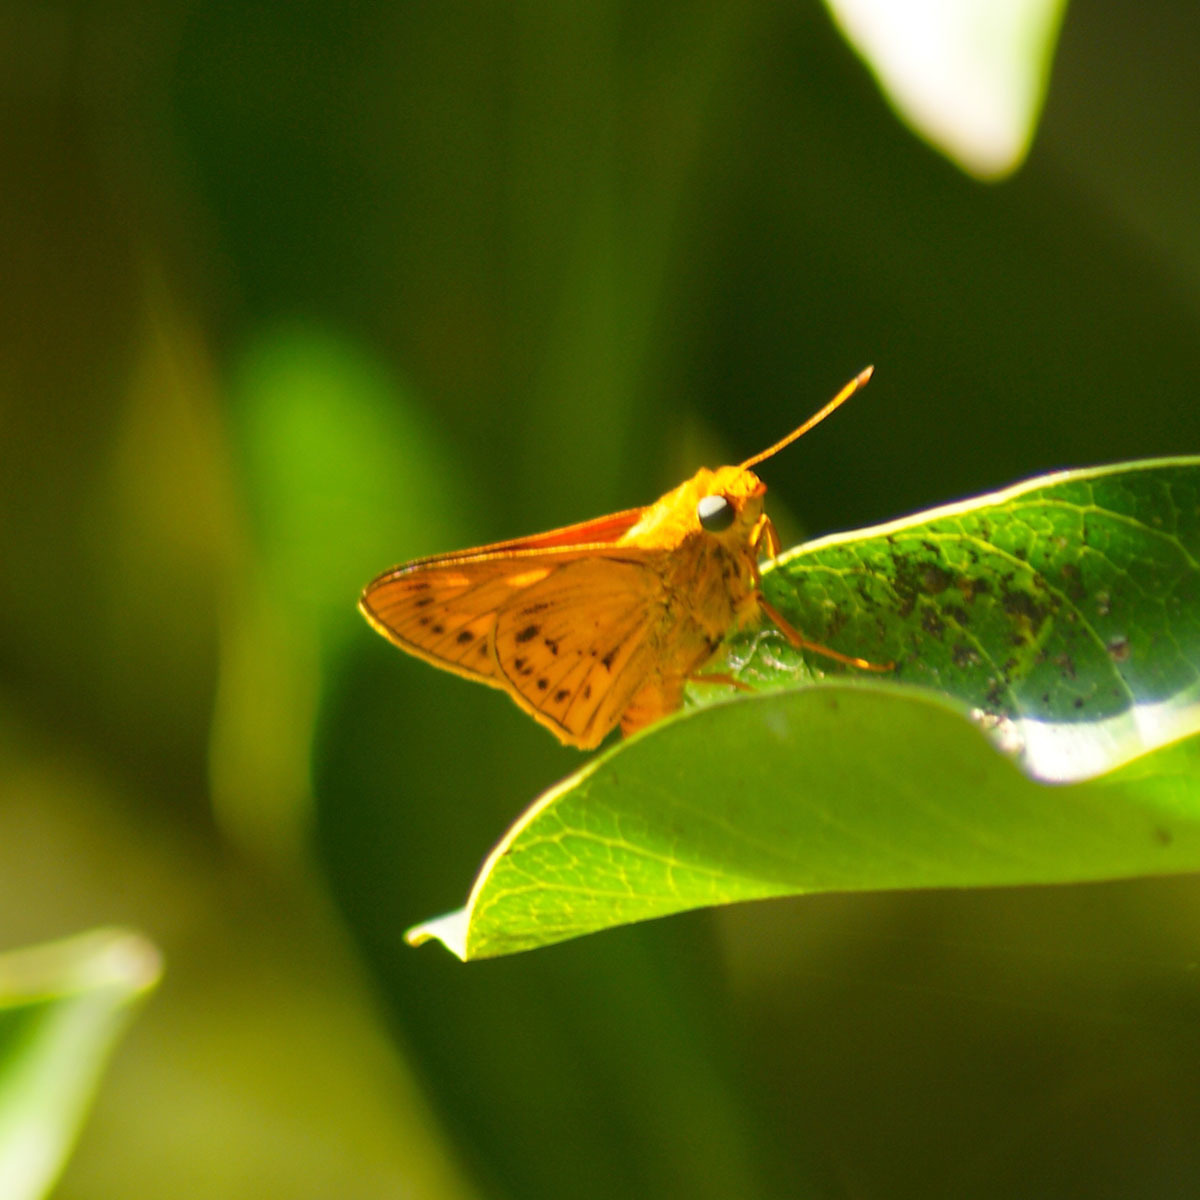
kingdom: Animalia
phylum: Arthropoda
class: Insecta
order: Lepidoptera
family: Hesperiidae
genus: Cephrenes
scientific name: Cephrenes
